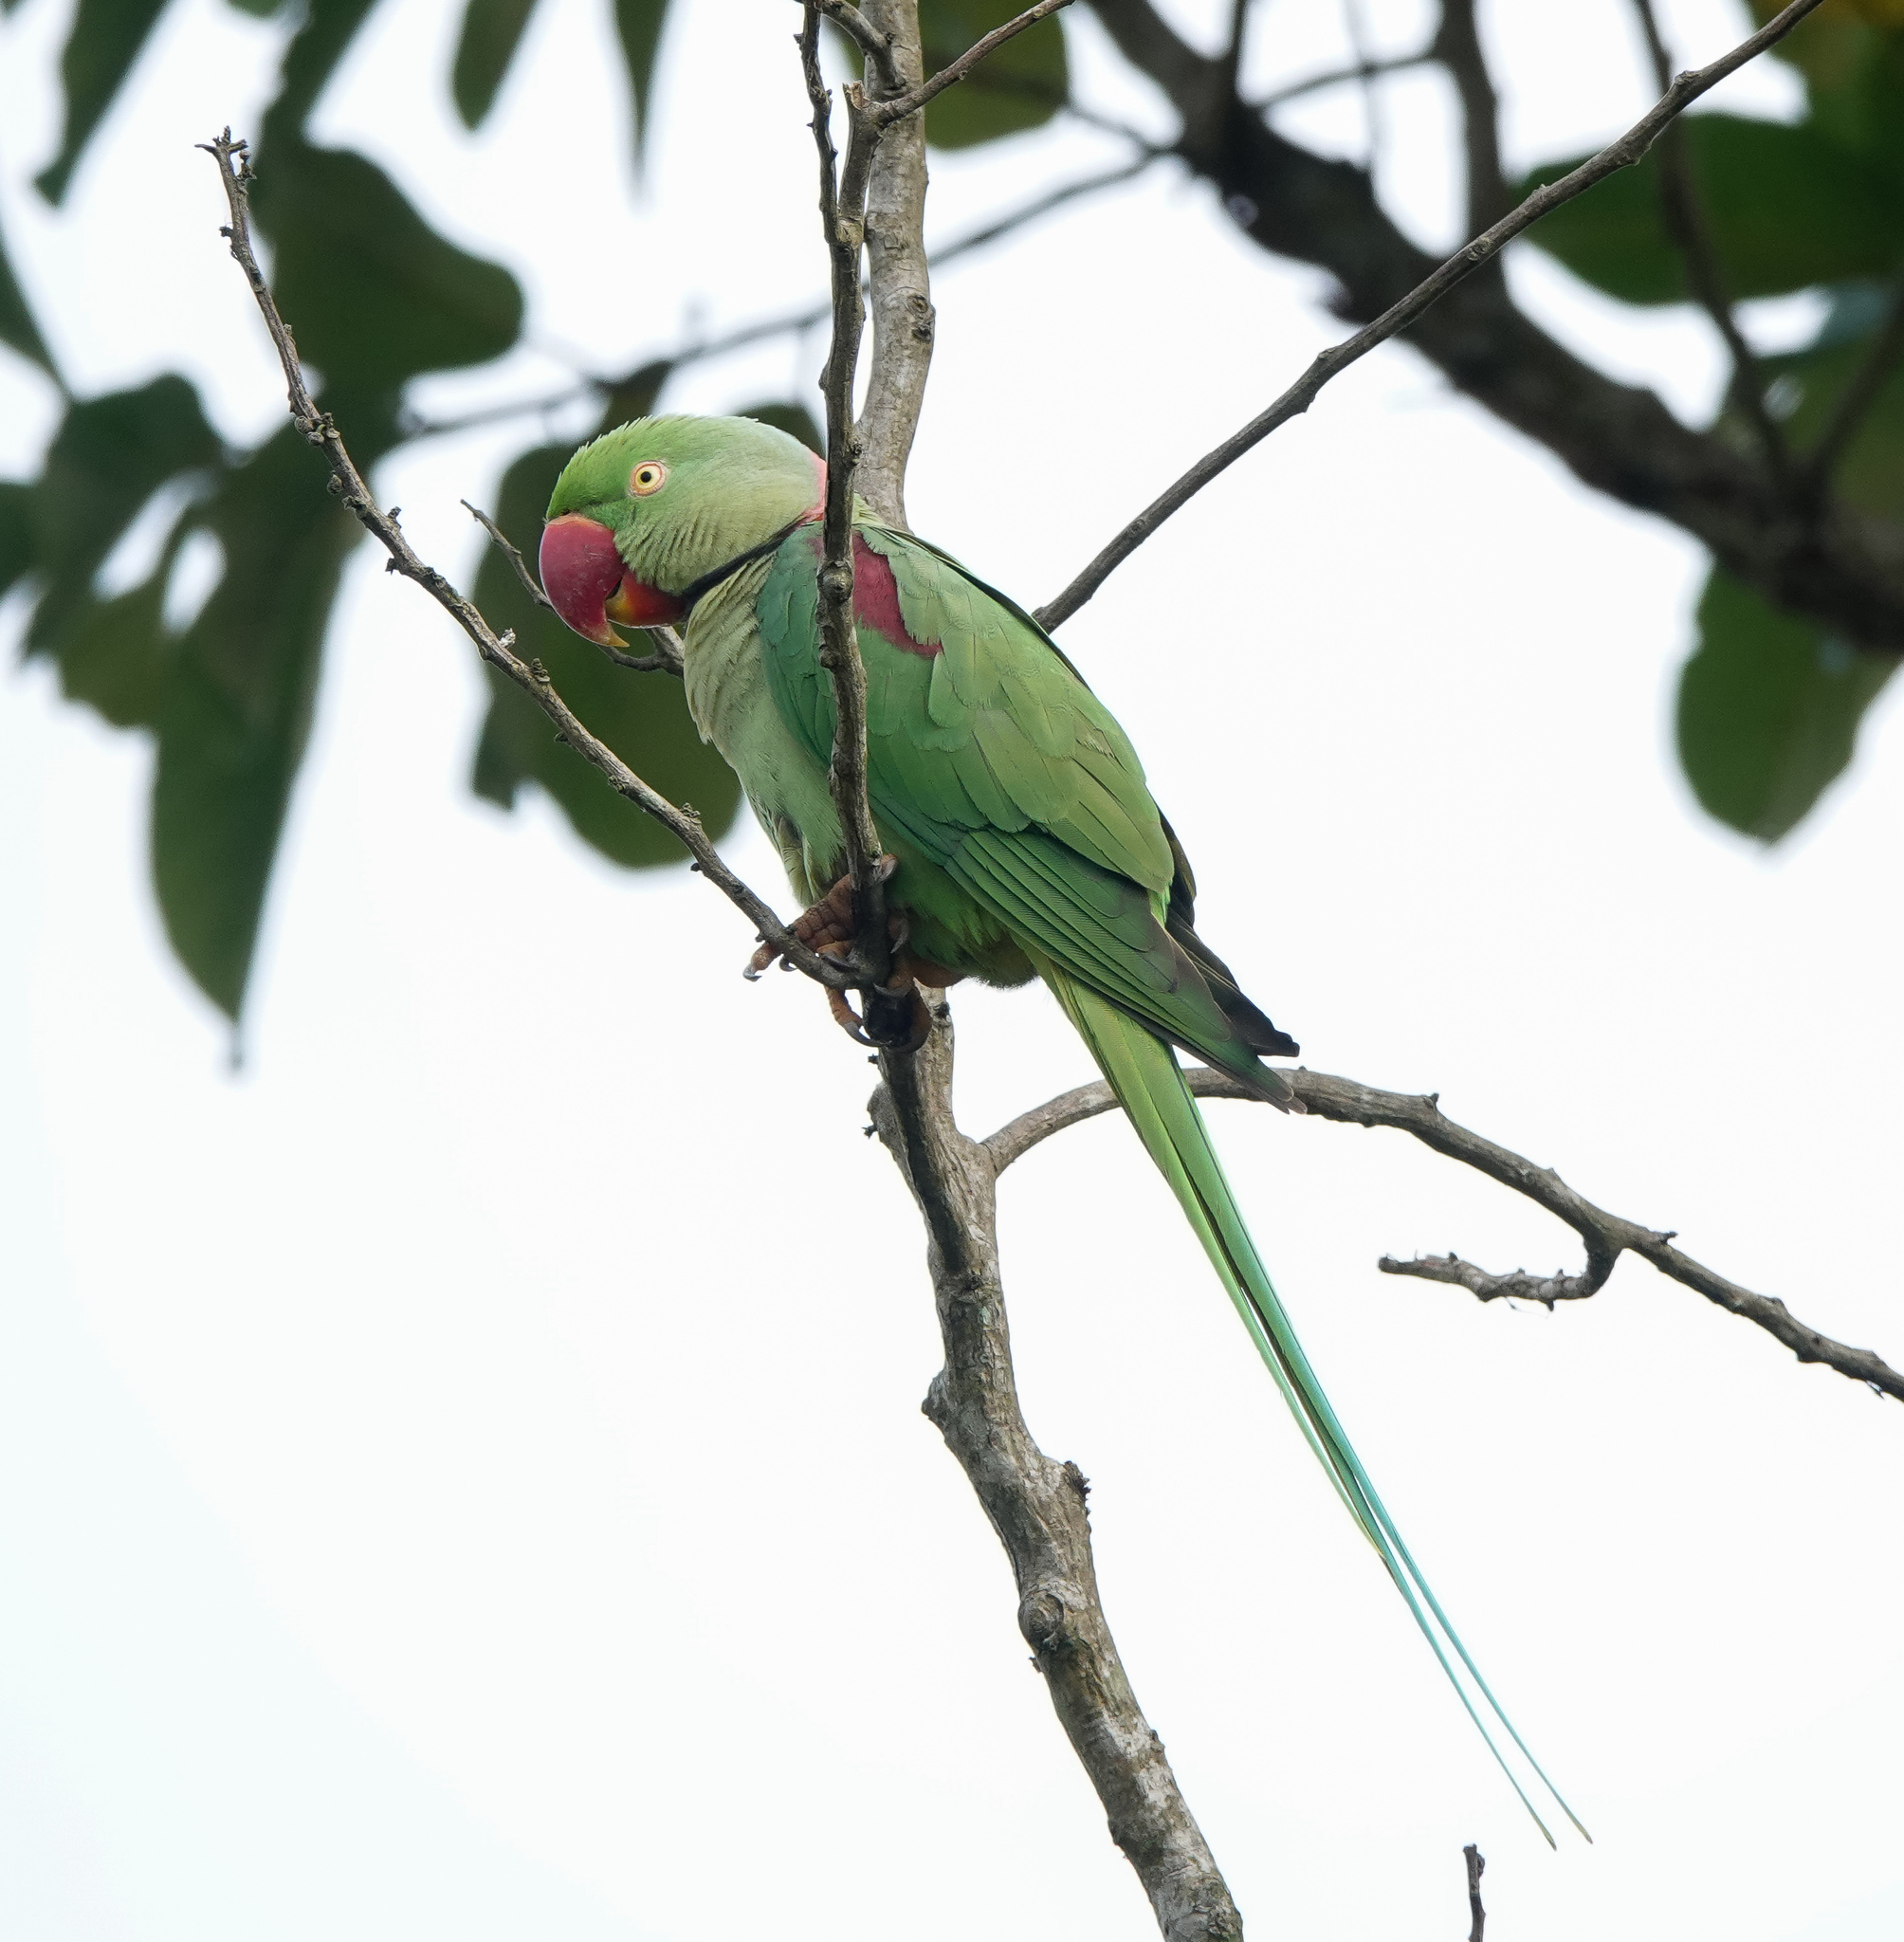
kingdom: Animalia
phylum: Chordata
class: Aves
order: Psittaciformes
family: Psittacidae
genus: Psittacula
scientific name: Psittacula eupatria
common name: Alexandrine parakeet
